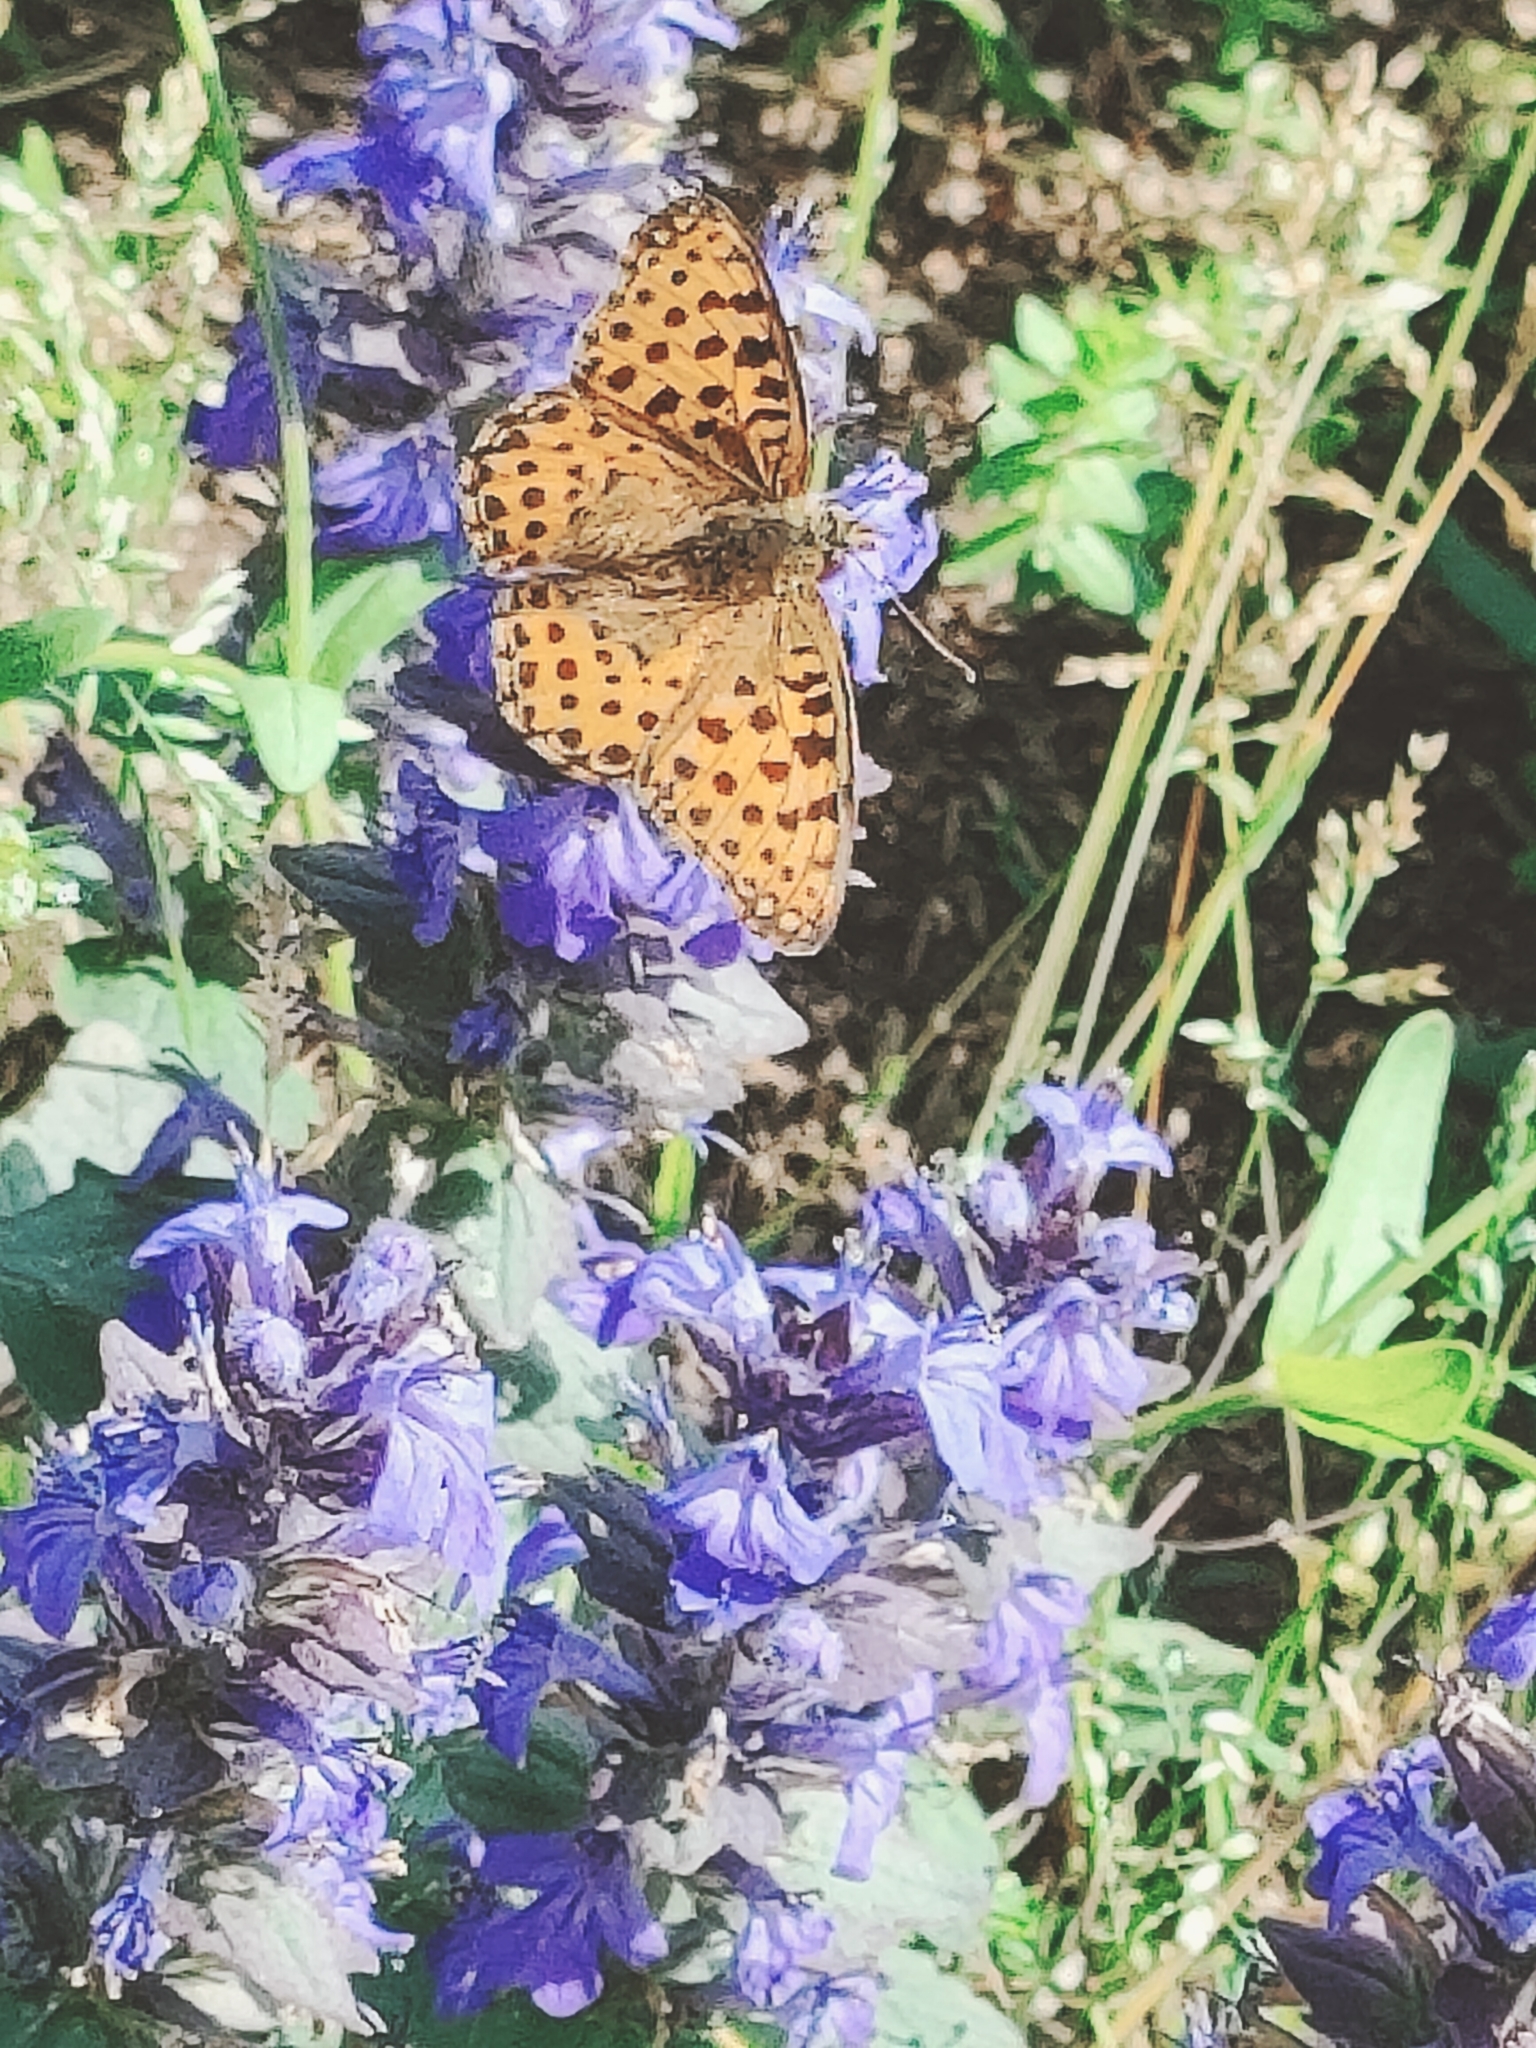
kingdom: Animalia
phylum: Arthropoda
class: Insecta
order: Lepidoptera
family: Nymphalidae
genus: Issoria
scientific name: Issoria lathonia
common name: Queen of spain fritillary
